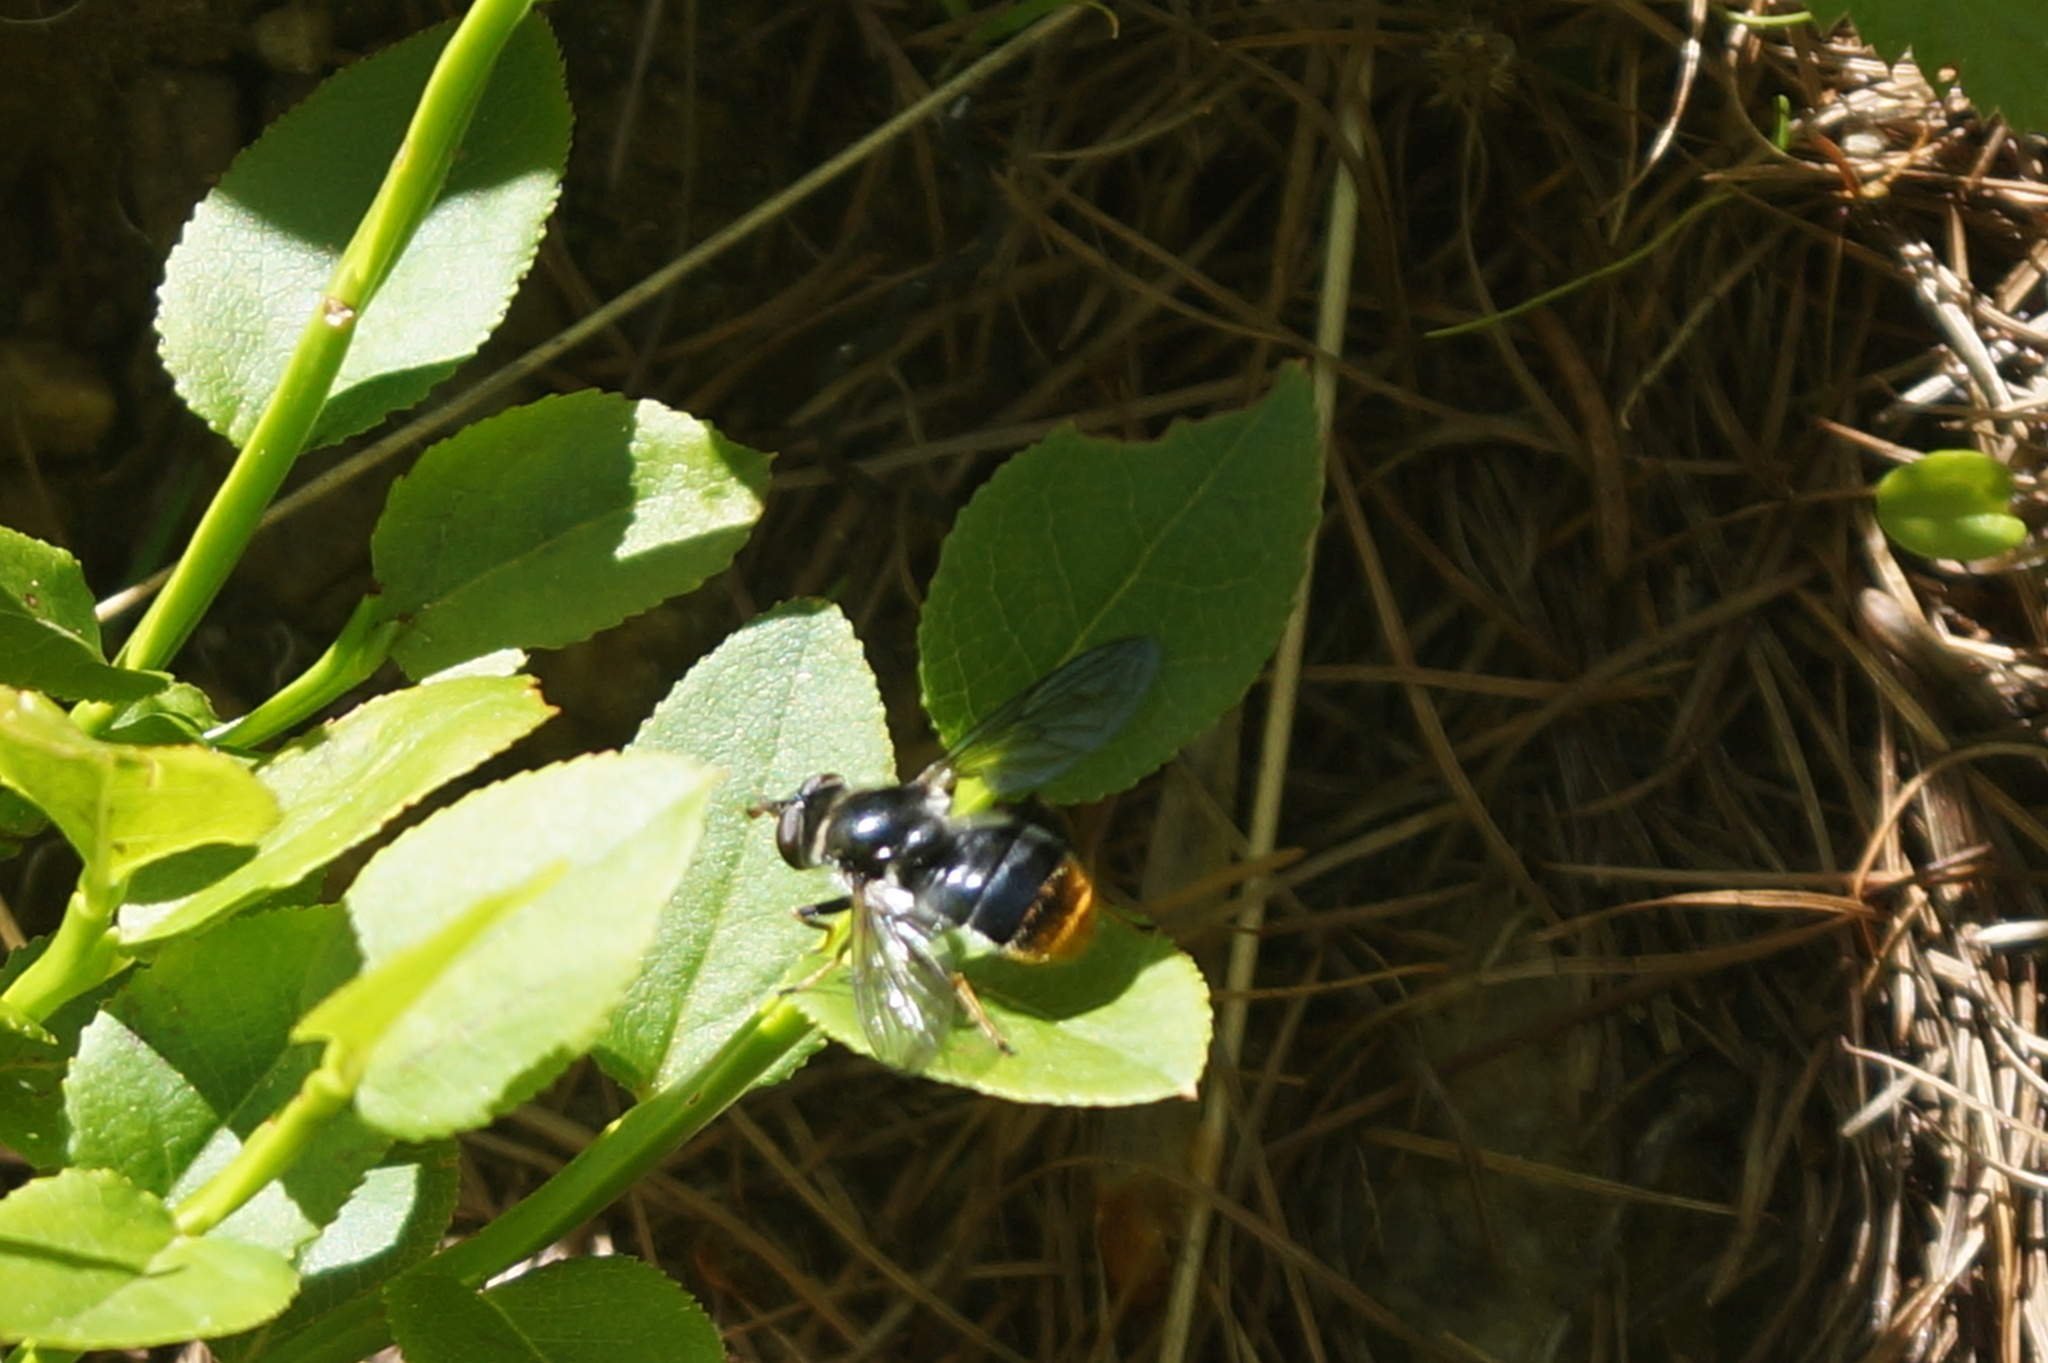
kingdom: Animalia
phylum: Arthropoda
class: Insecta
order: Diptera
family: Syrphidae
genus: Blera
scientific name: Blera fallax
